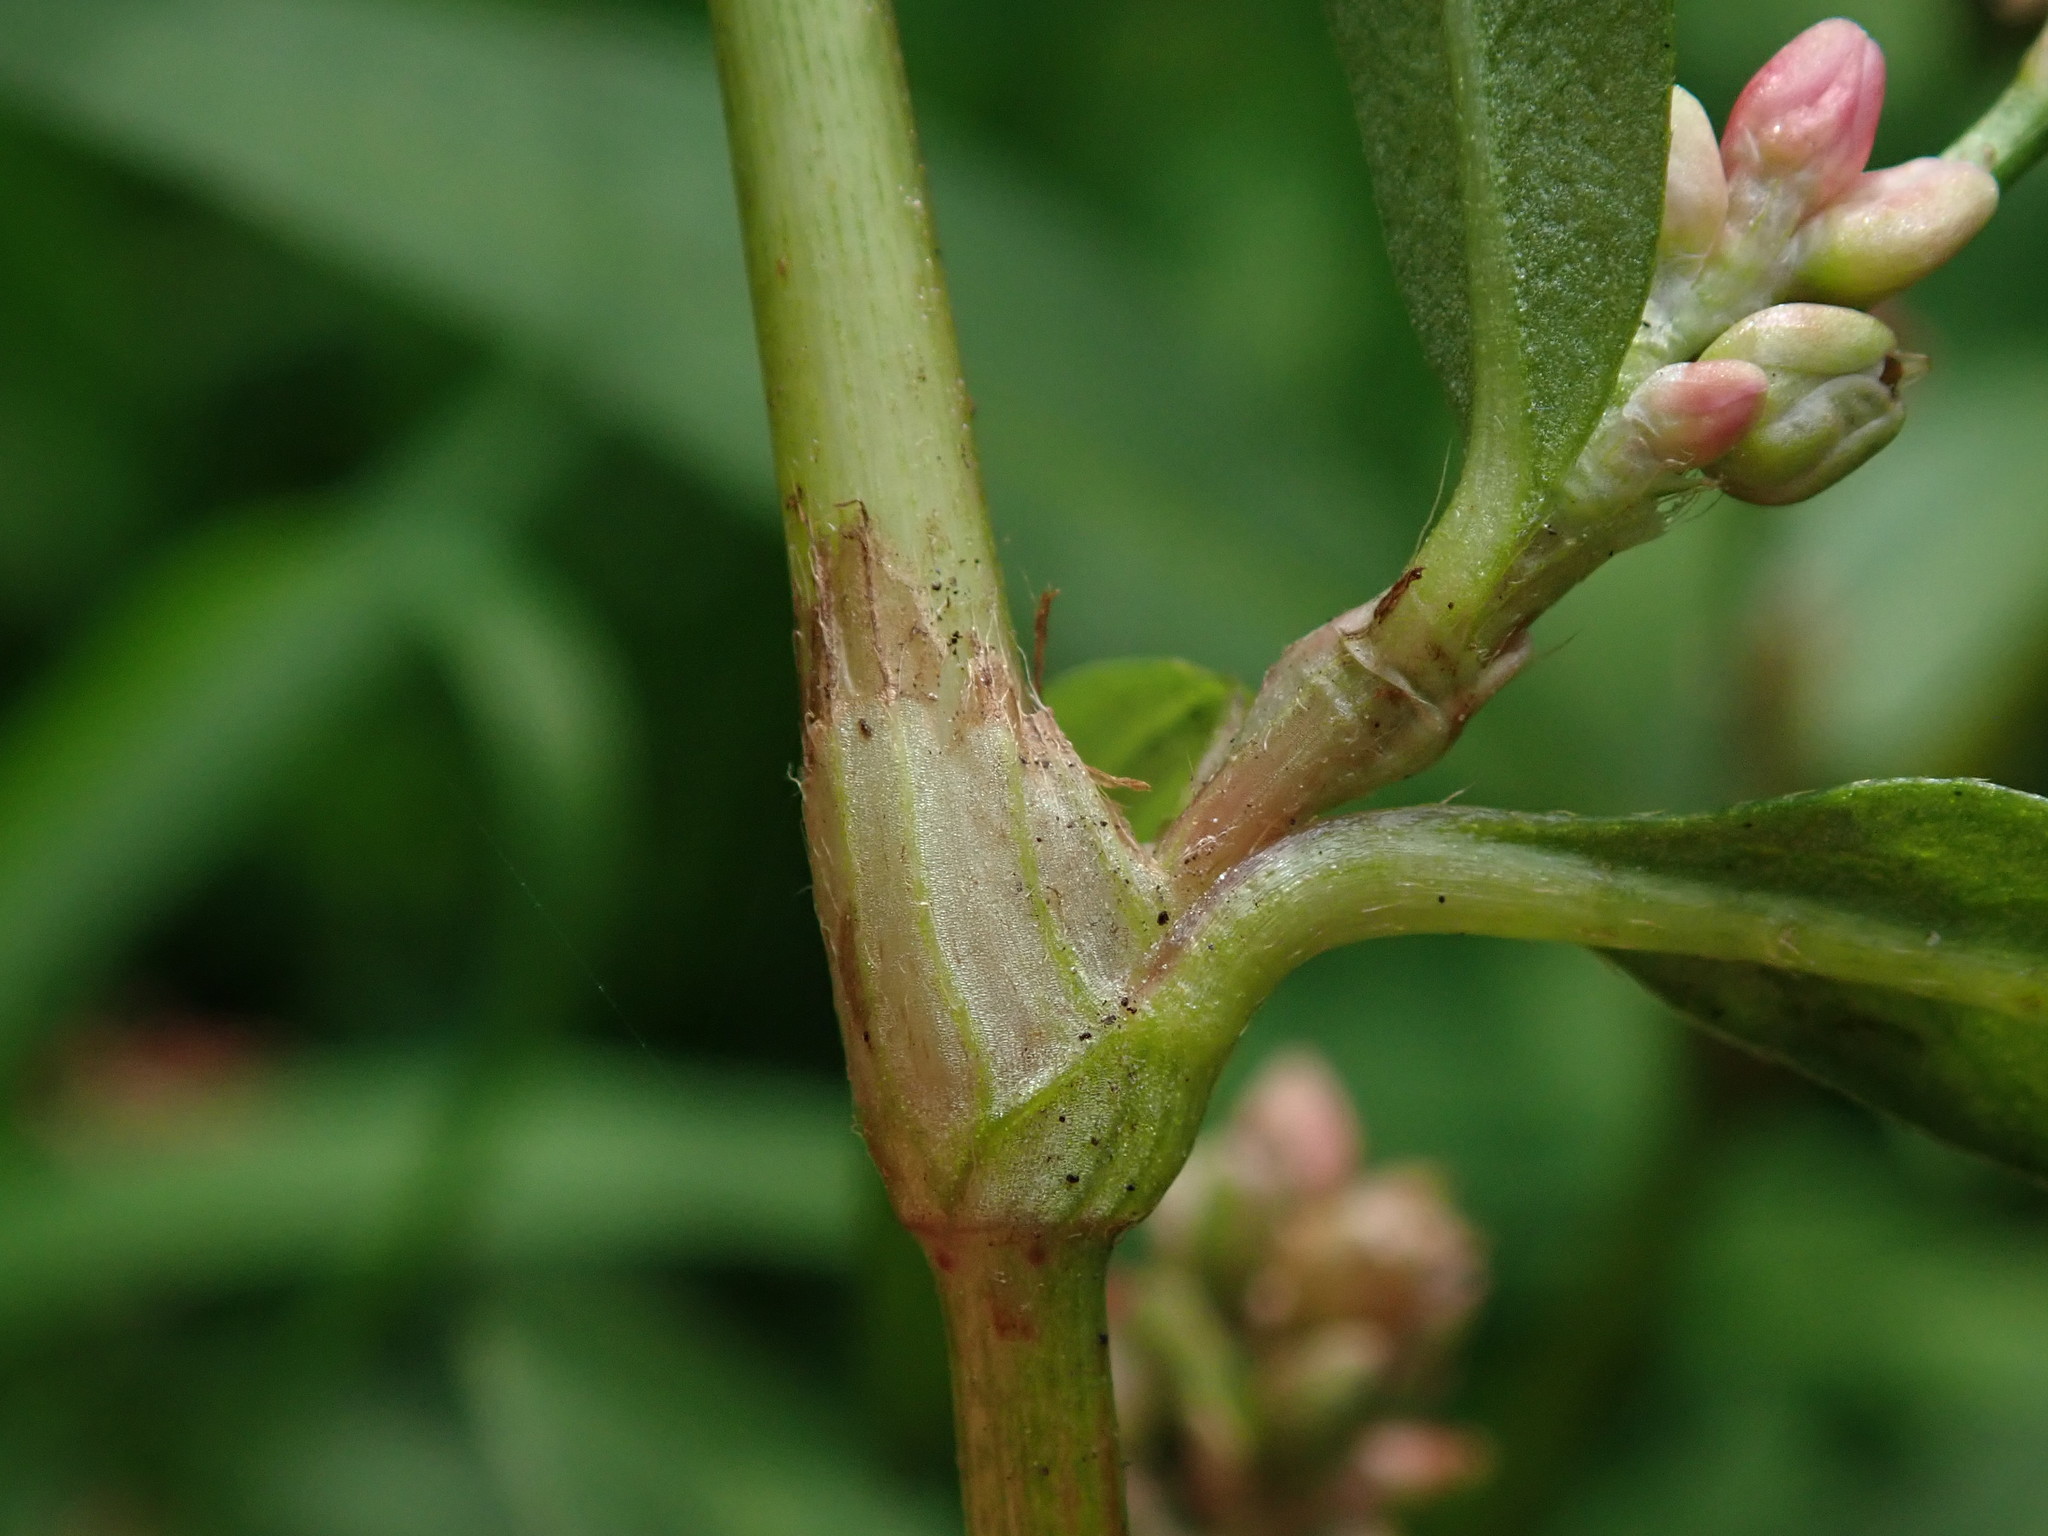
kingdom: Plantae
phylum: Tracheophyta
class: Magnoliopsida
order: Caryophyllales
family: Polygonaceae
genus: Persicaria
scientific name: Persicaria maculosa
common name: Redshank
